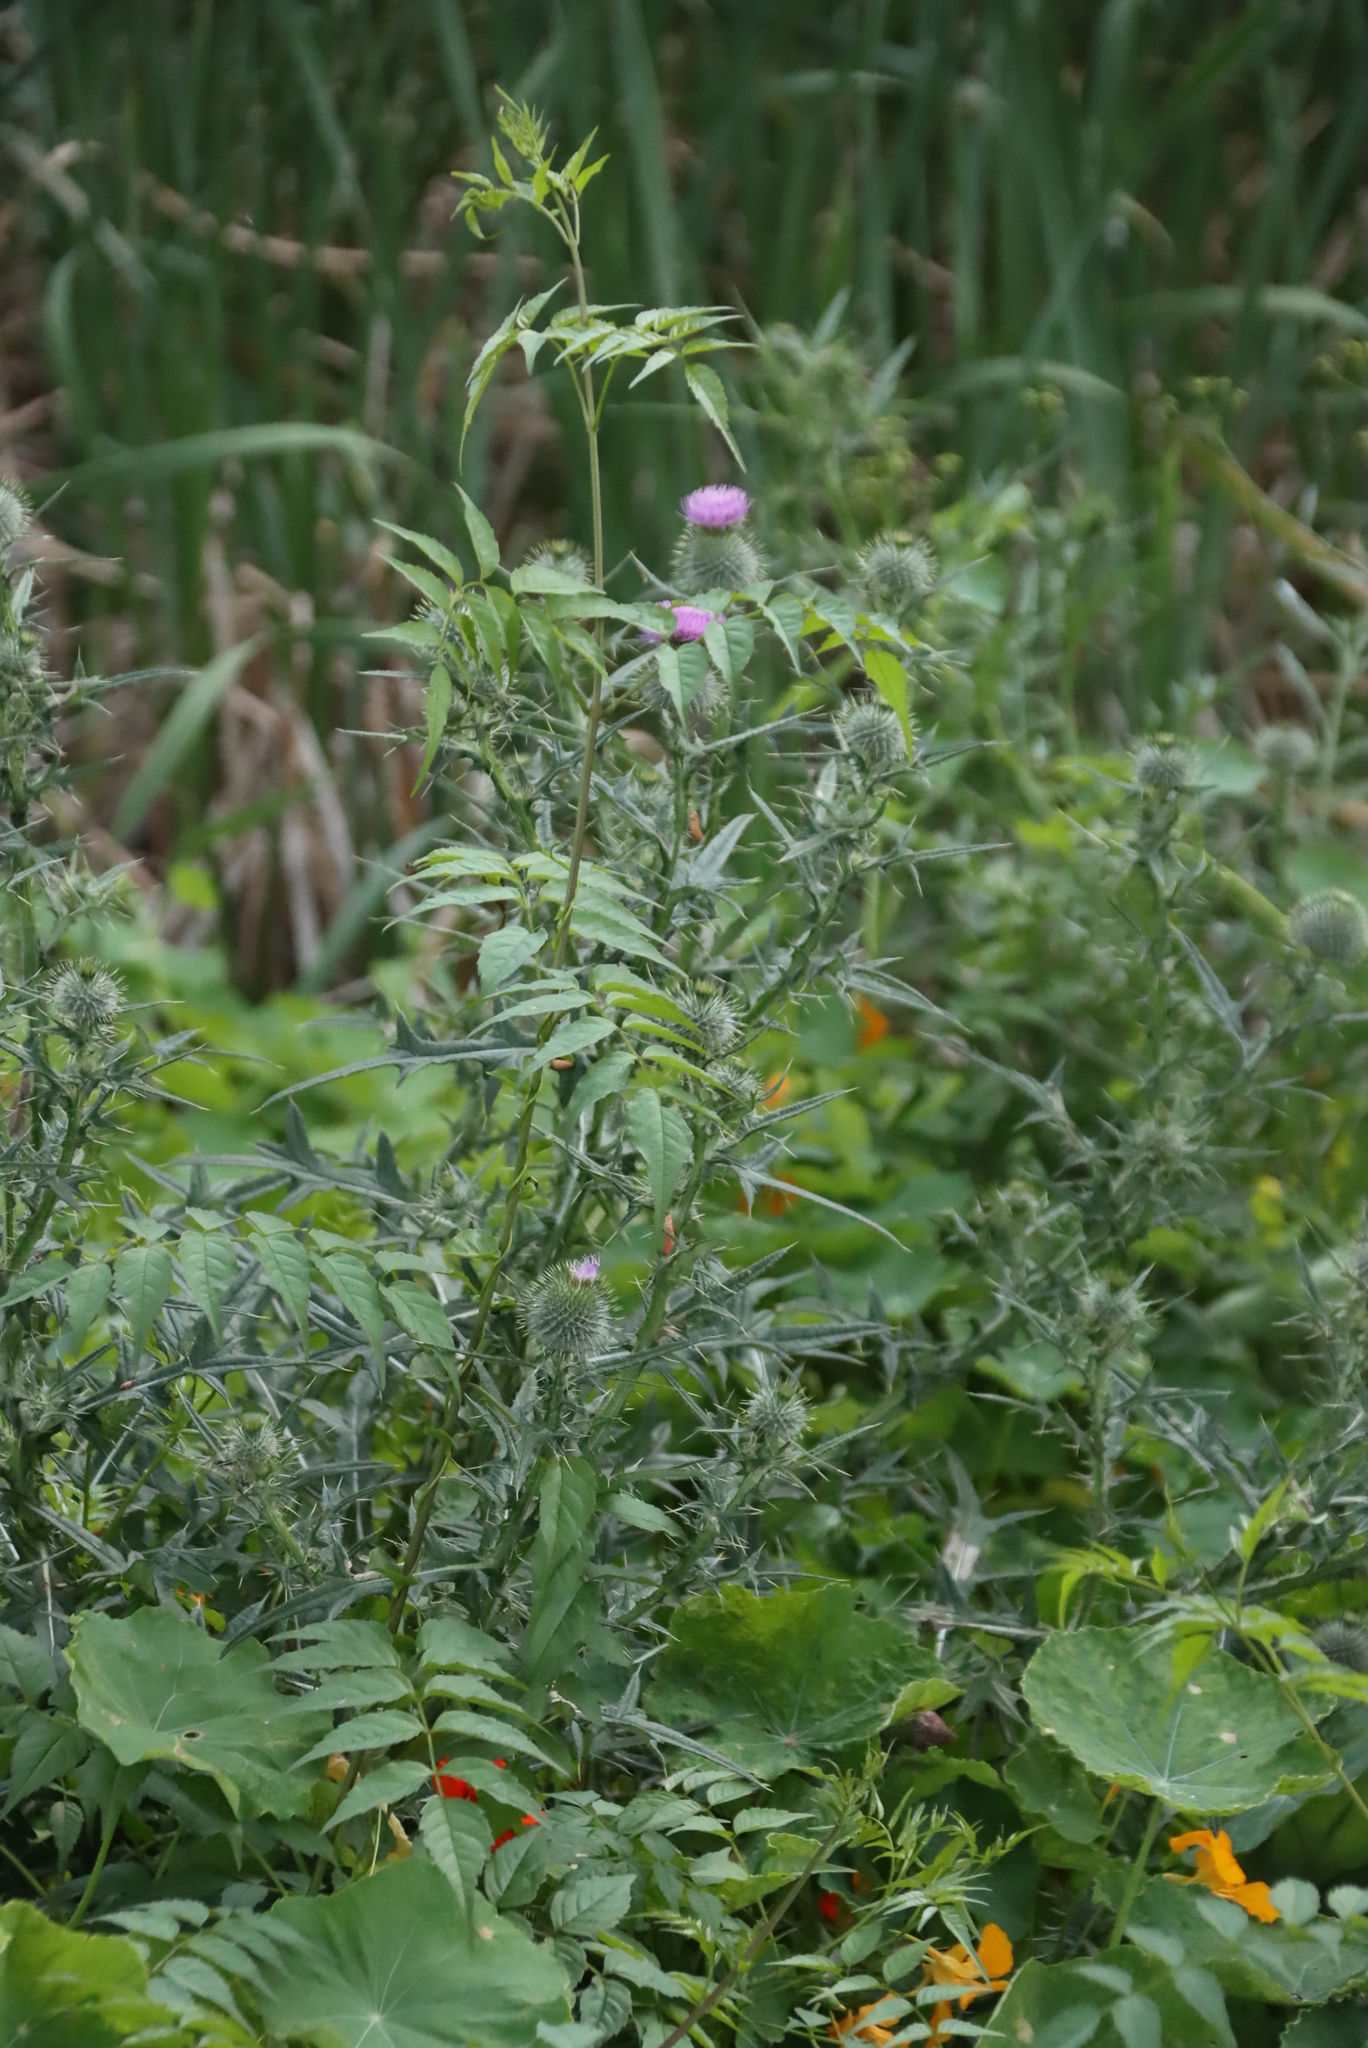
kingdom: Plantae
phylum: Tracheophyta
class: Magnoliopsida
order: Asterales
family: Asteraceae
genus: Cirsium
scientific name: Cirsium vulgare
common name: Bull thistle
